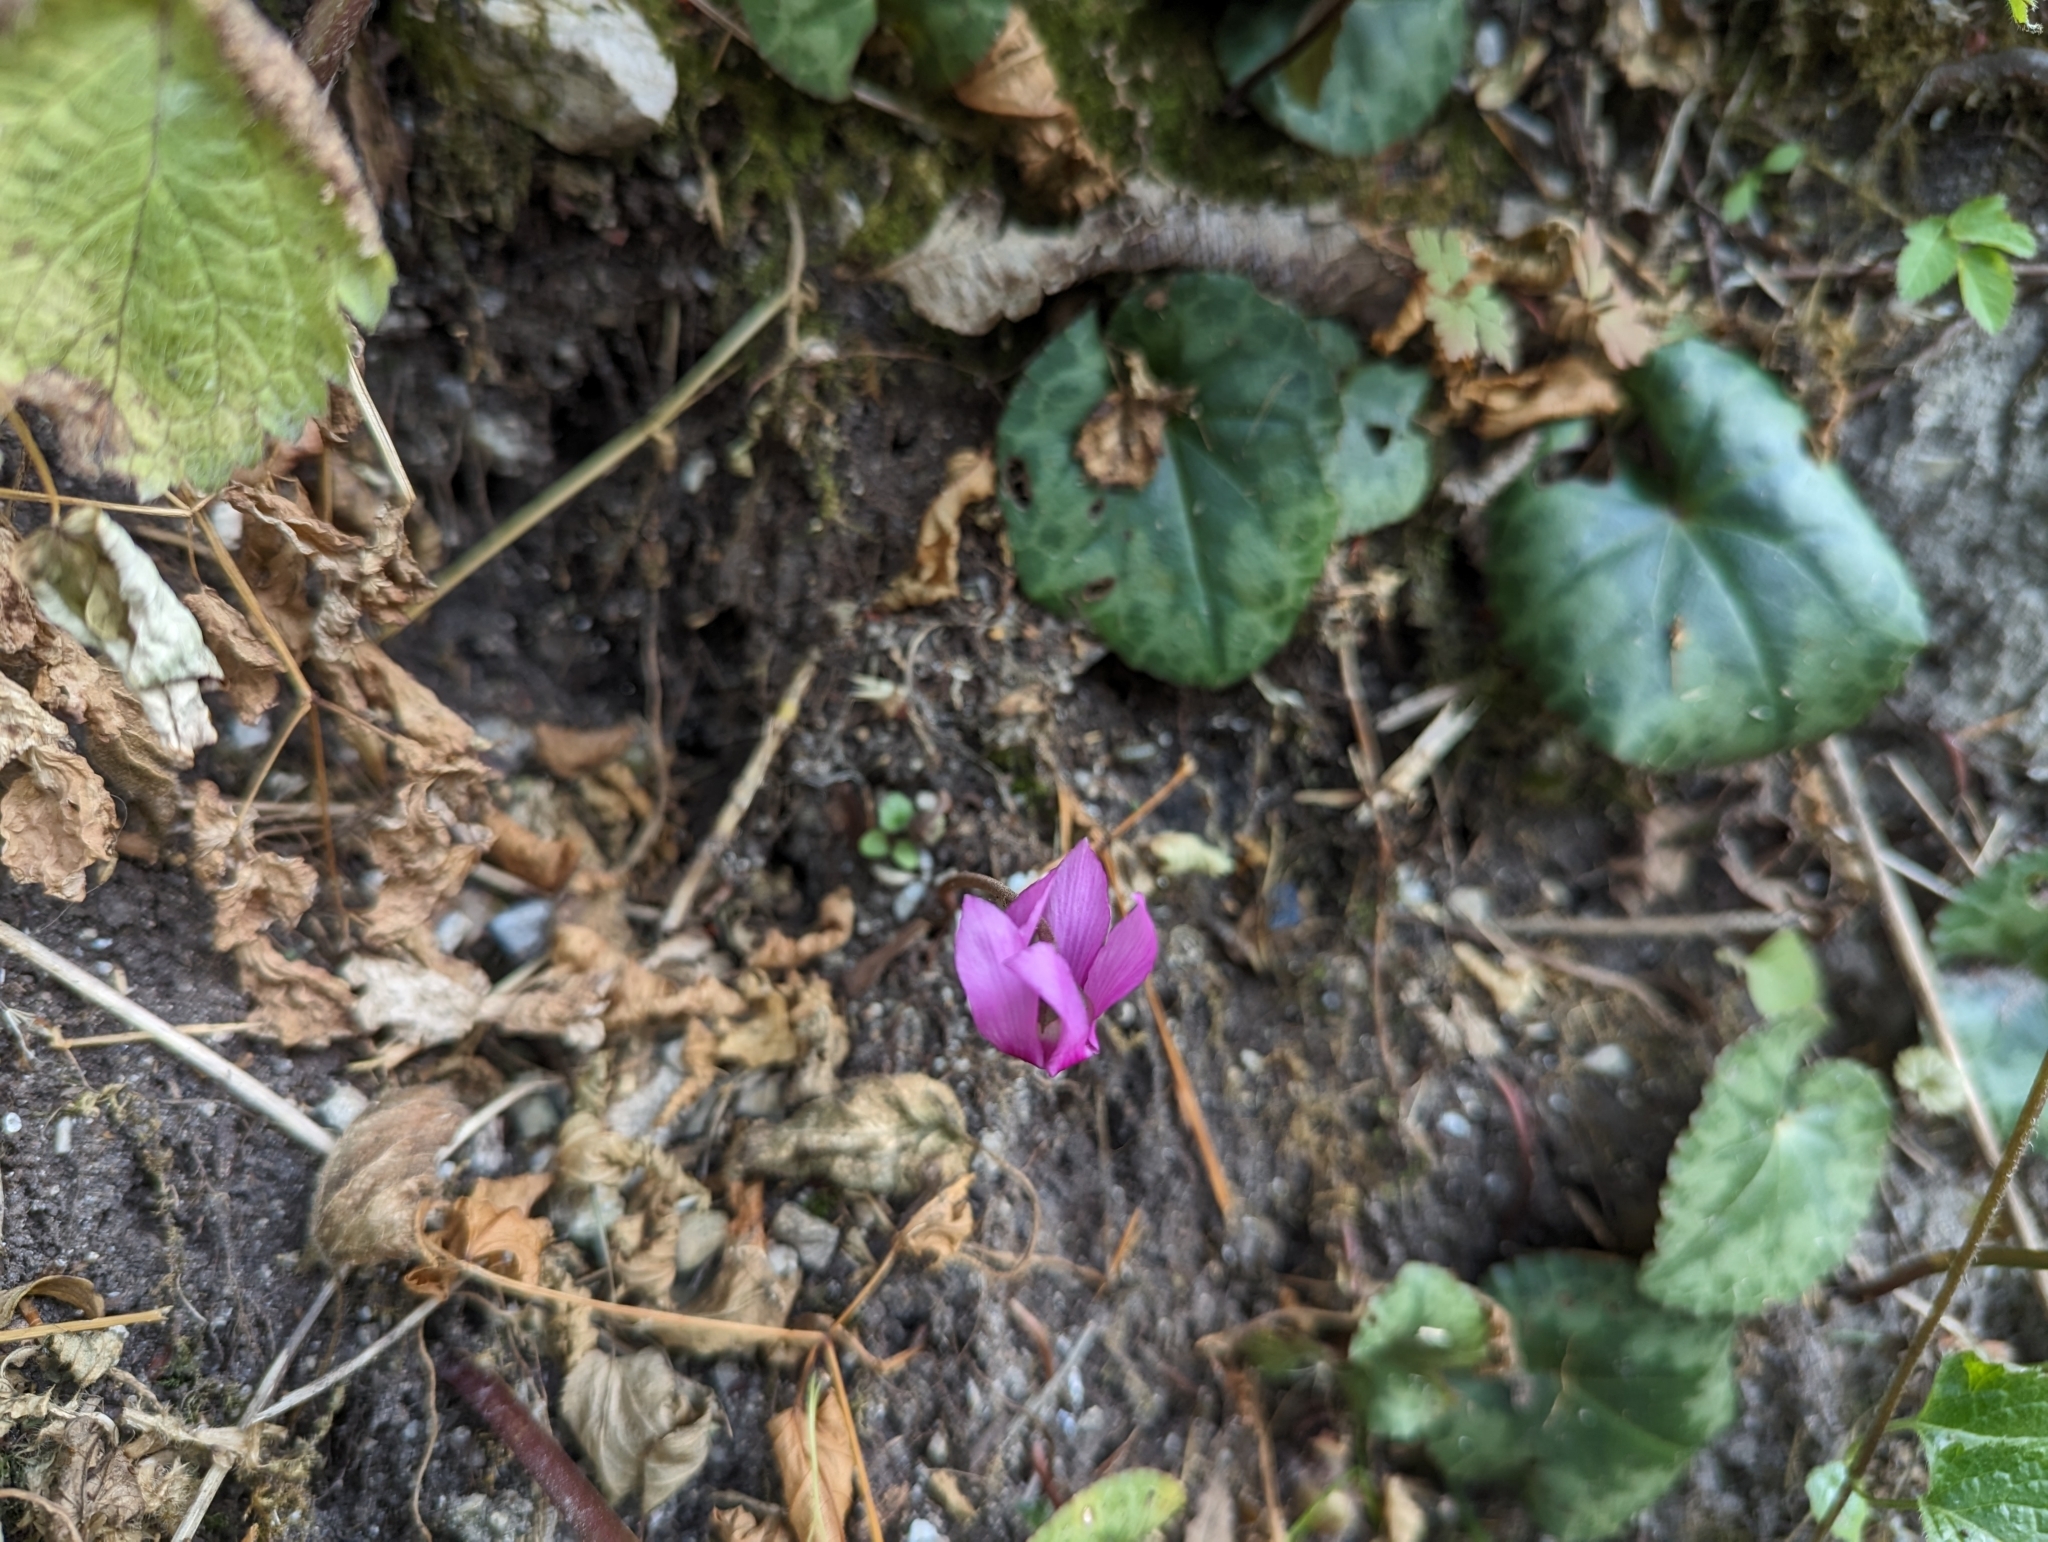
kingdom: Plantae
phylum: Tracheophyta
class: Magnoliopsida
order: Ericales
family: Primulaceae
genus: Cyclamen
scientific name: Cyclamen purpurascens
